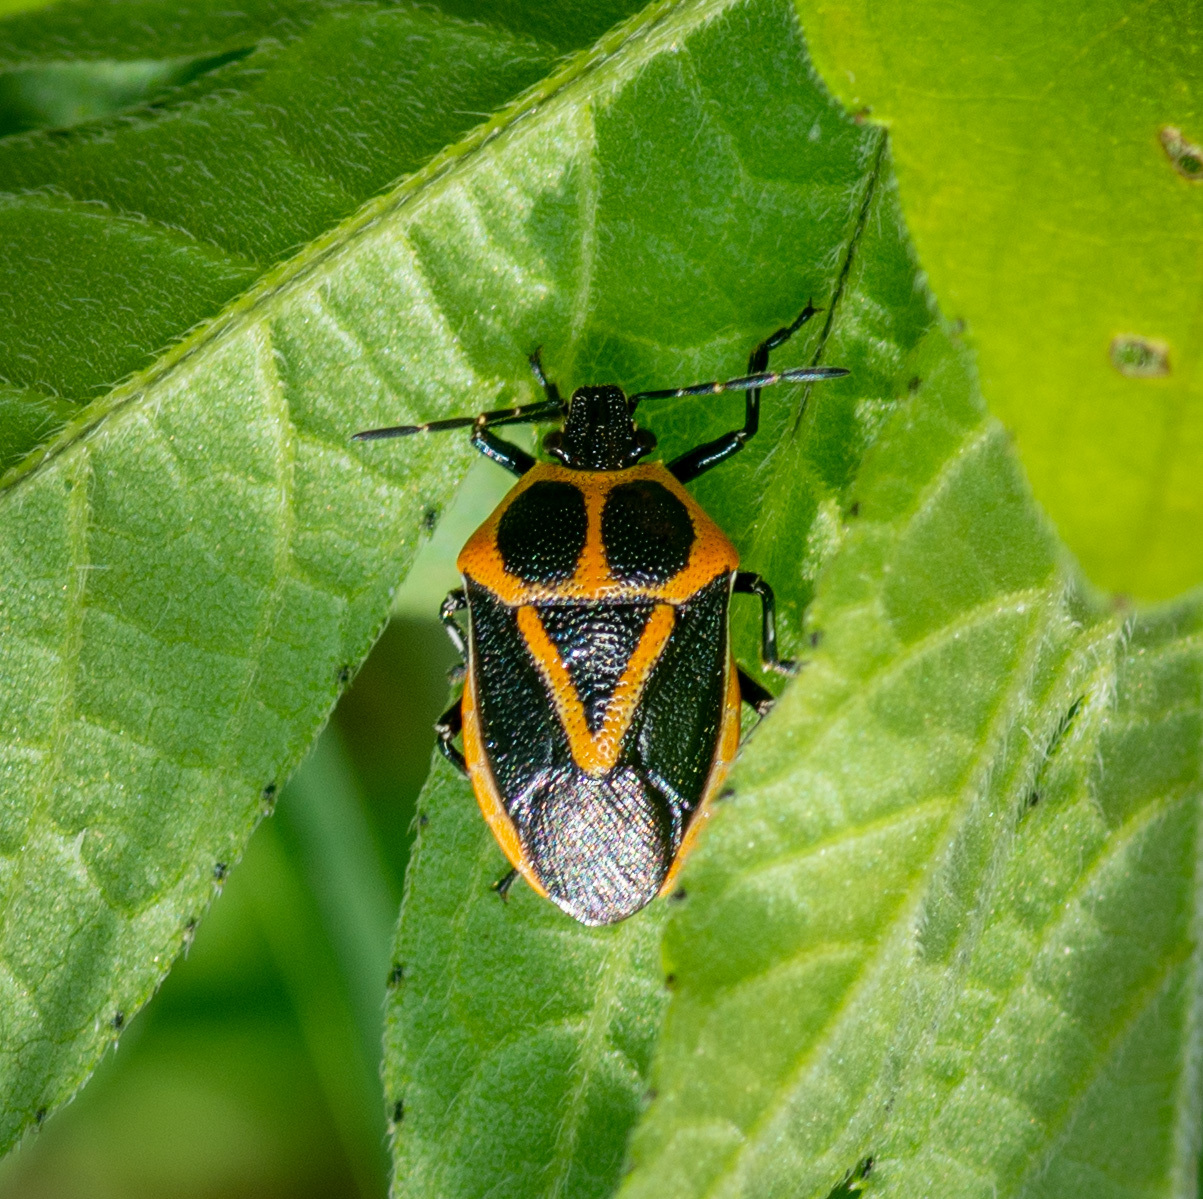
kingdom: Animalia
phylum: Arthropoda
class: Insecta
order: Hemiptera
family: Pentatomidae
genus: Perillus
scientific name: Perillus strigipes
